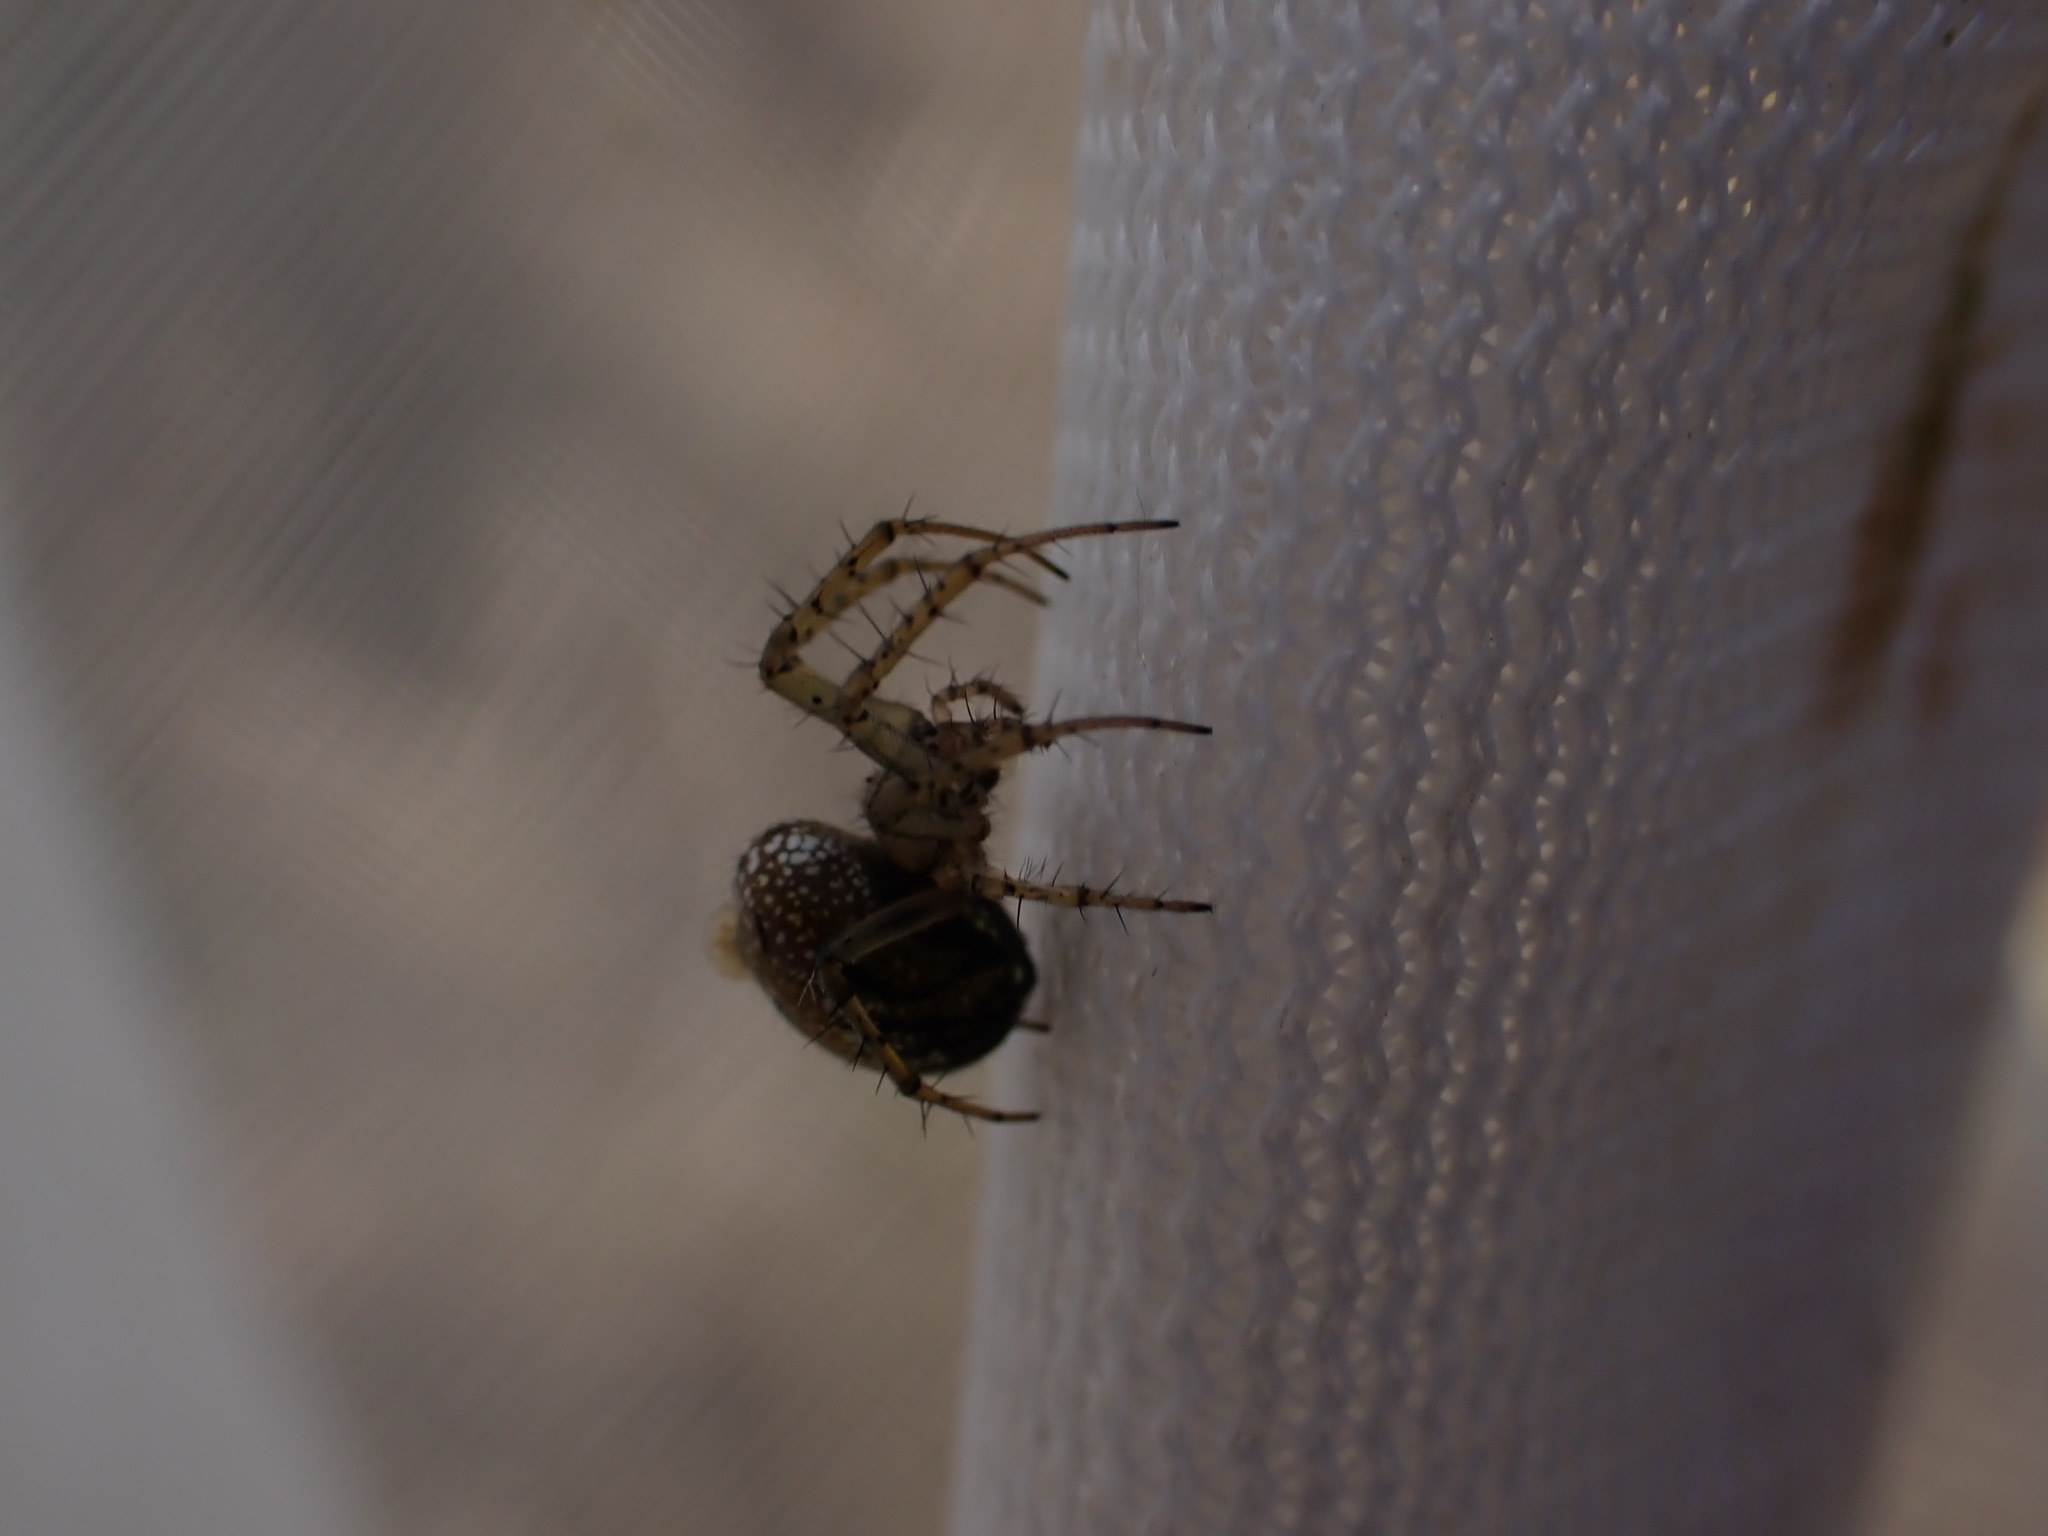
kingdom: Animalia
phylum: Arthropoda
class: Arachnida
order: Araneae
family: Araneidae
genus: Mangora
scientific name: Mangora acalypha
